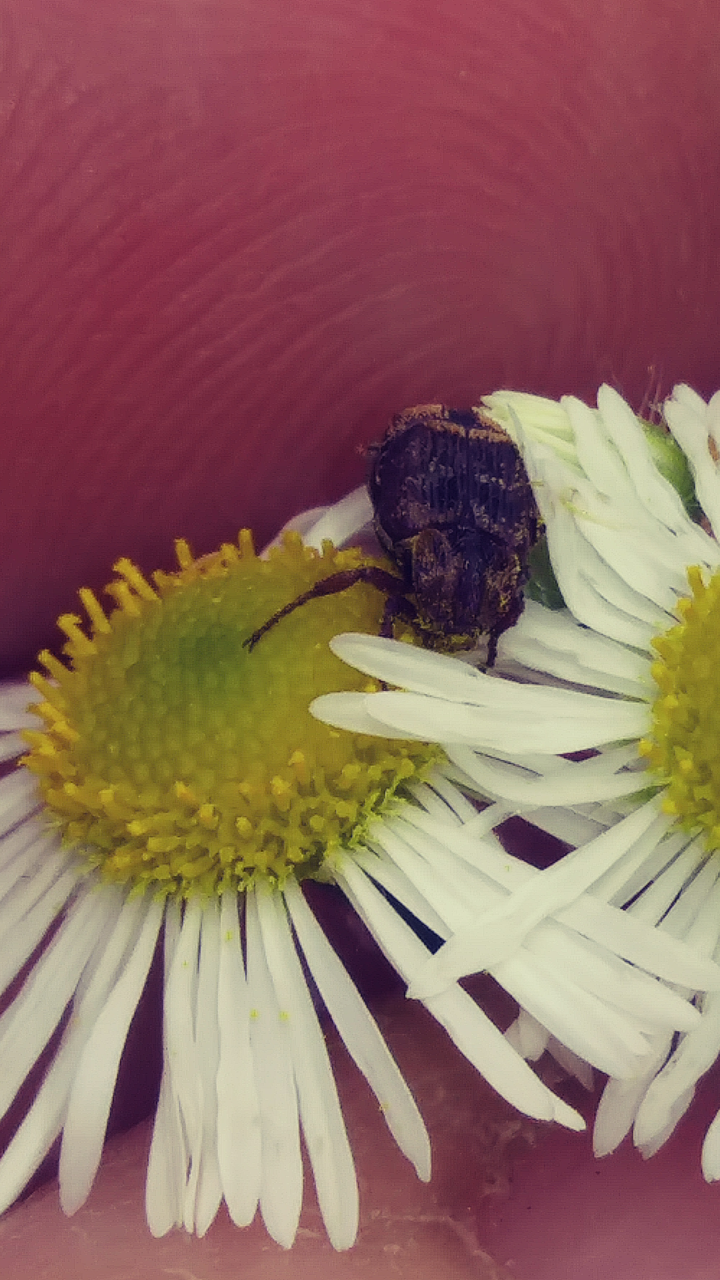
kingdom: Animalia
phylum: Arthropoda
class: Insecta
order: Coleoptera
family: Scarabaeidae
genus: Valgus
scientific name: Valgus canaliculatus
